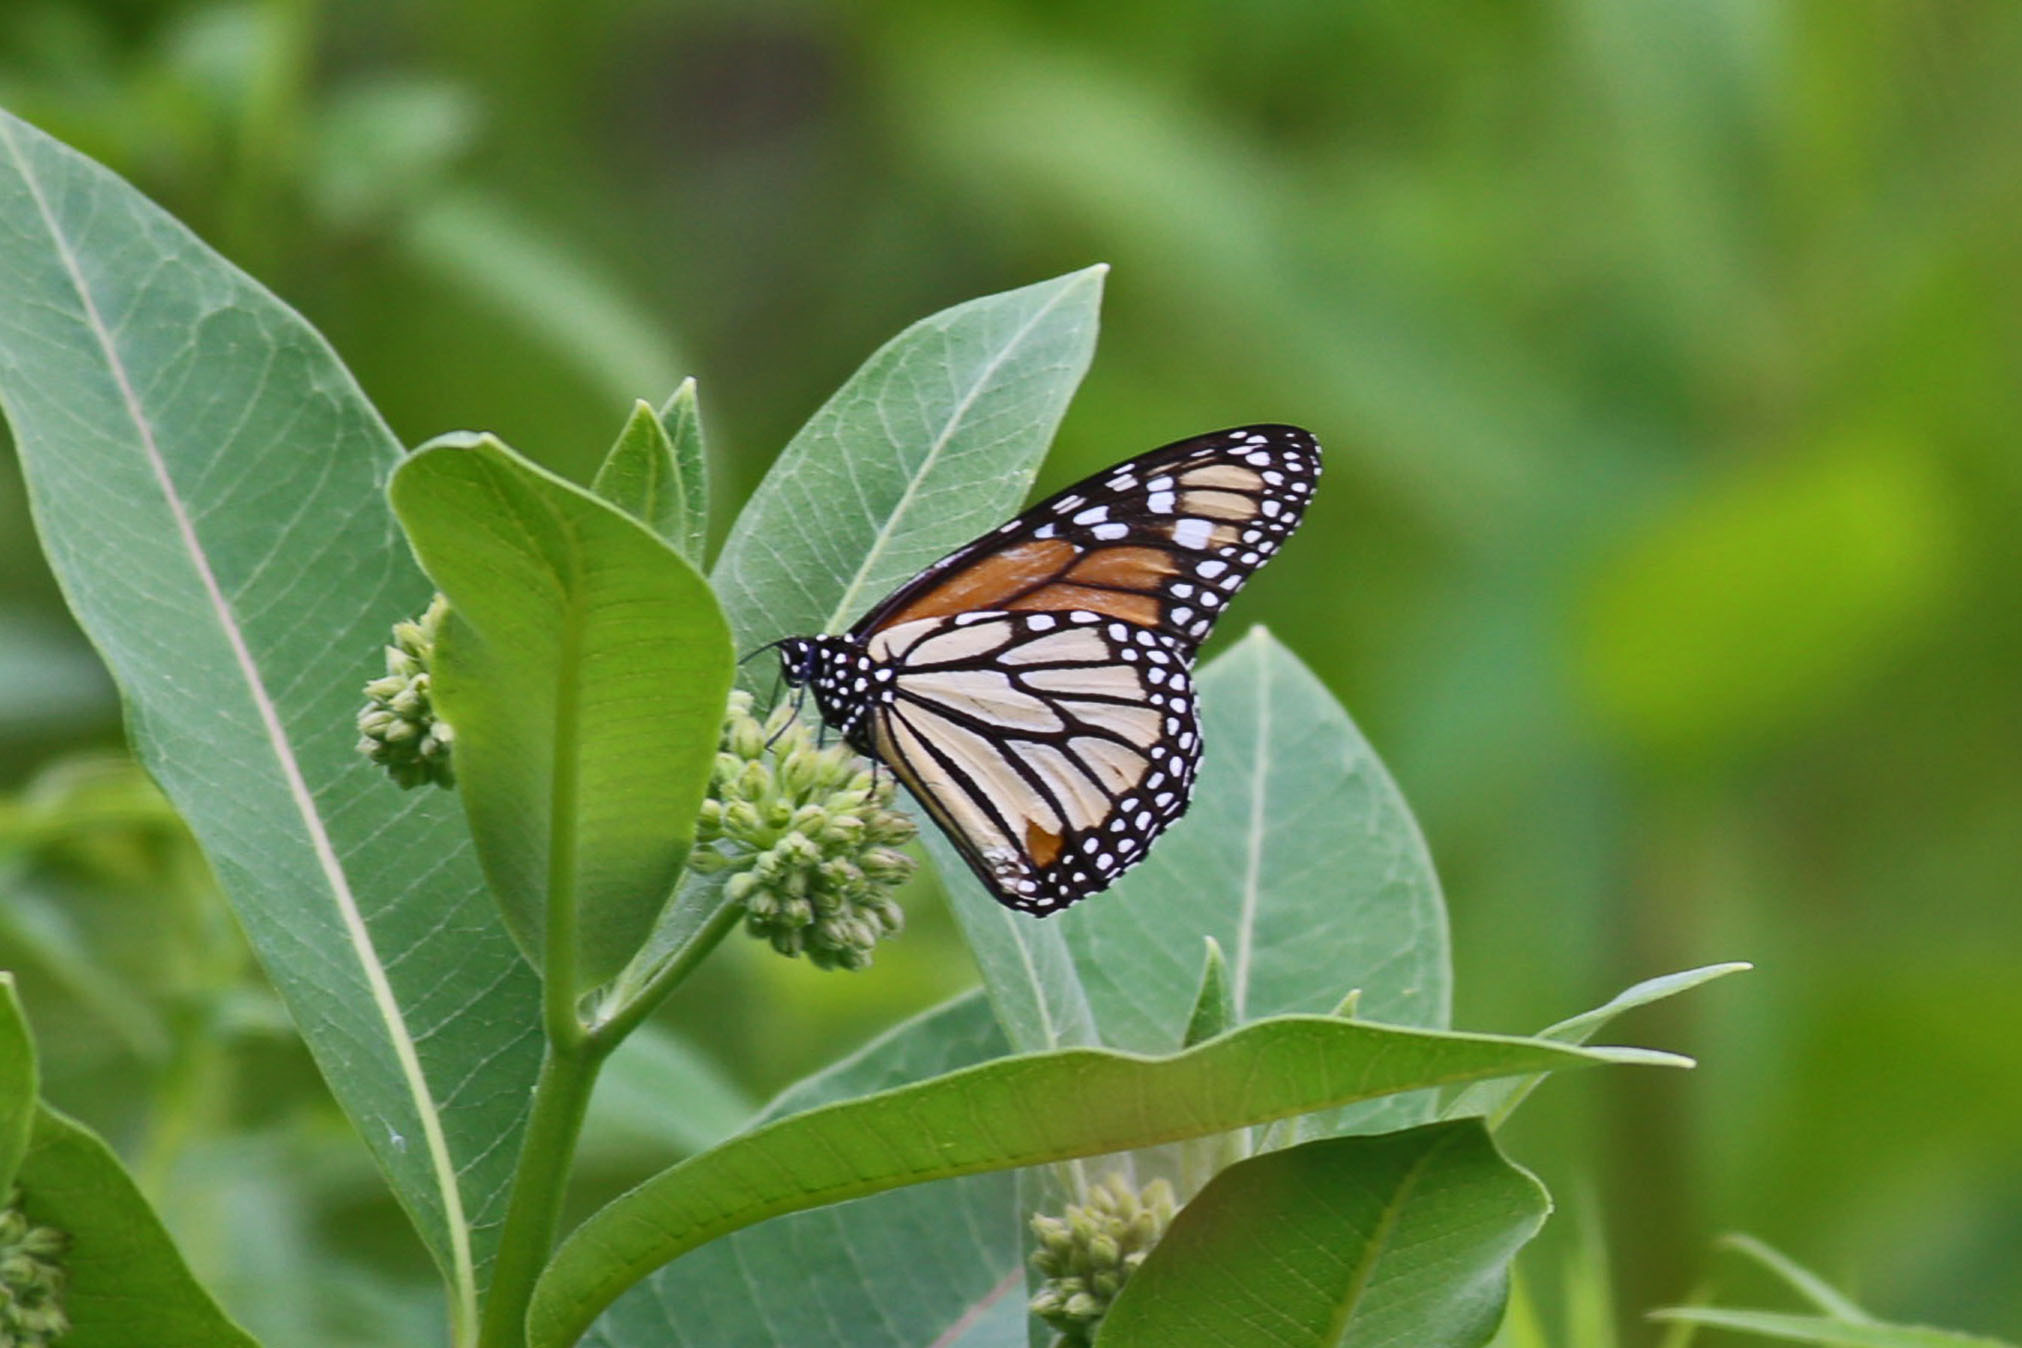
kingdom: Animalia
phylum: Arthropoda
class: Insecta
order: Lepidoptera
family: Nymphalidae
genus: Danaus
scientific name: Danaus plexippus
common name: Monarch
